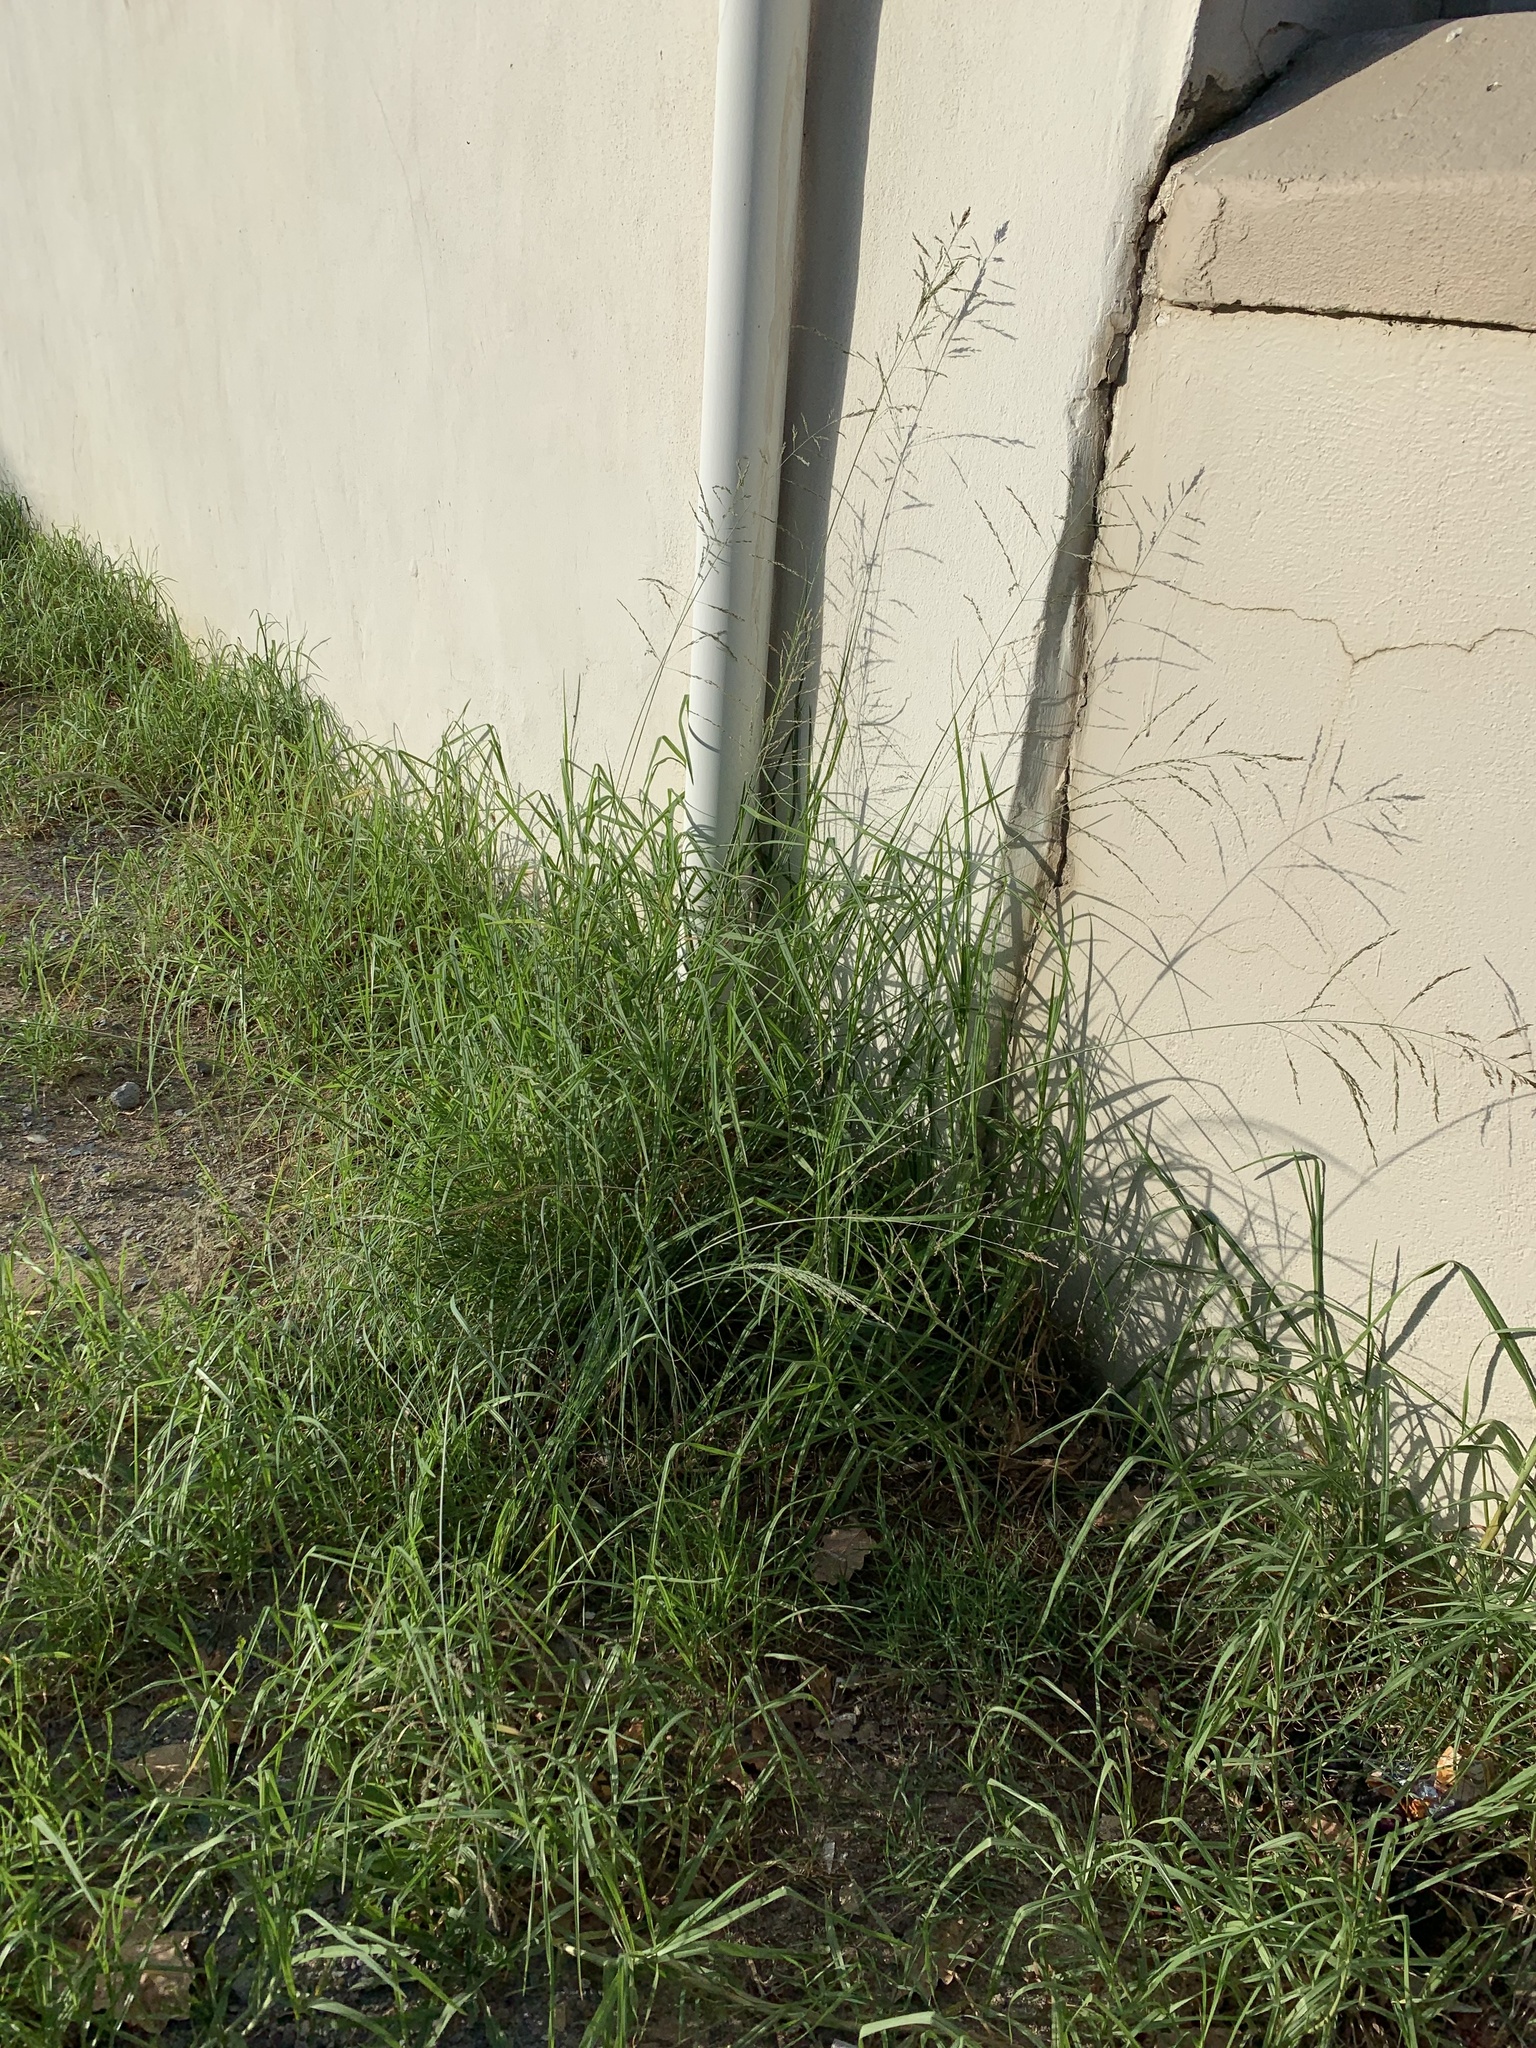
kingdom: Plantae
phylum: Tracheophyta
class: Liliopsida
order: Poales
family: Poaceae
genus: Eragrostis
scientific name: Eragrostis curvula
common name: African love-grass
